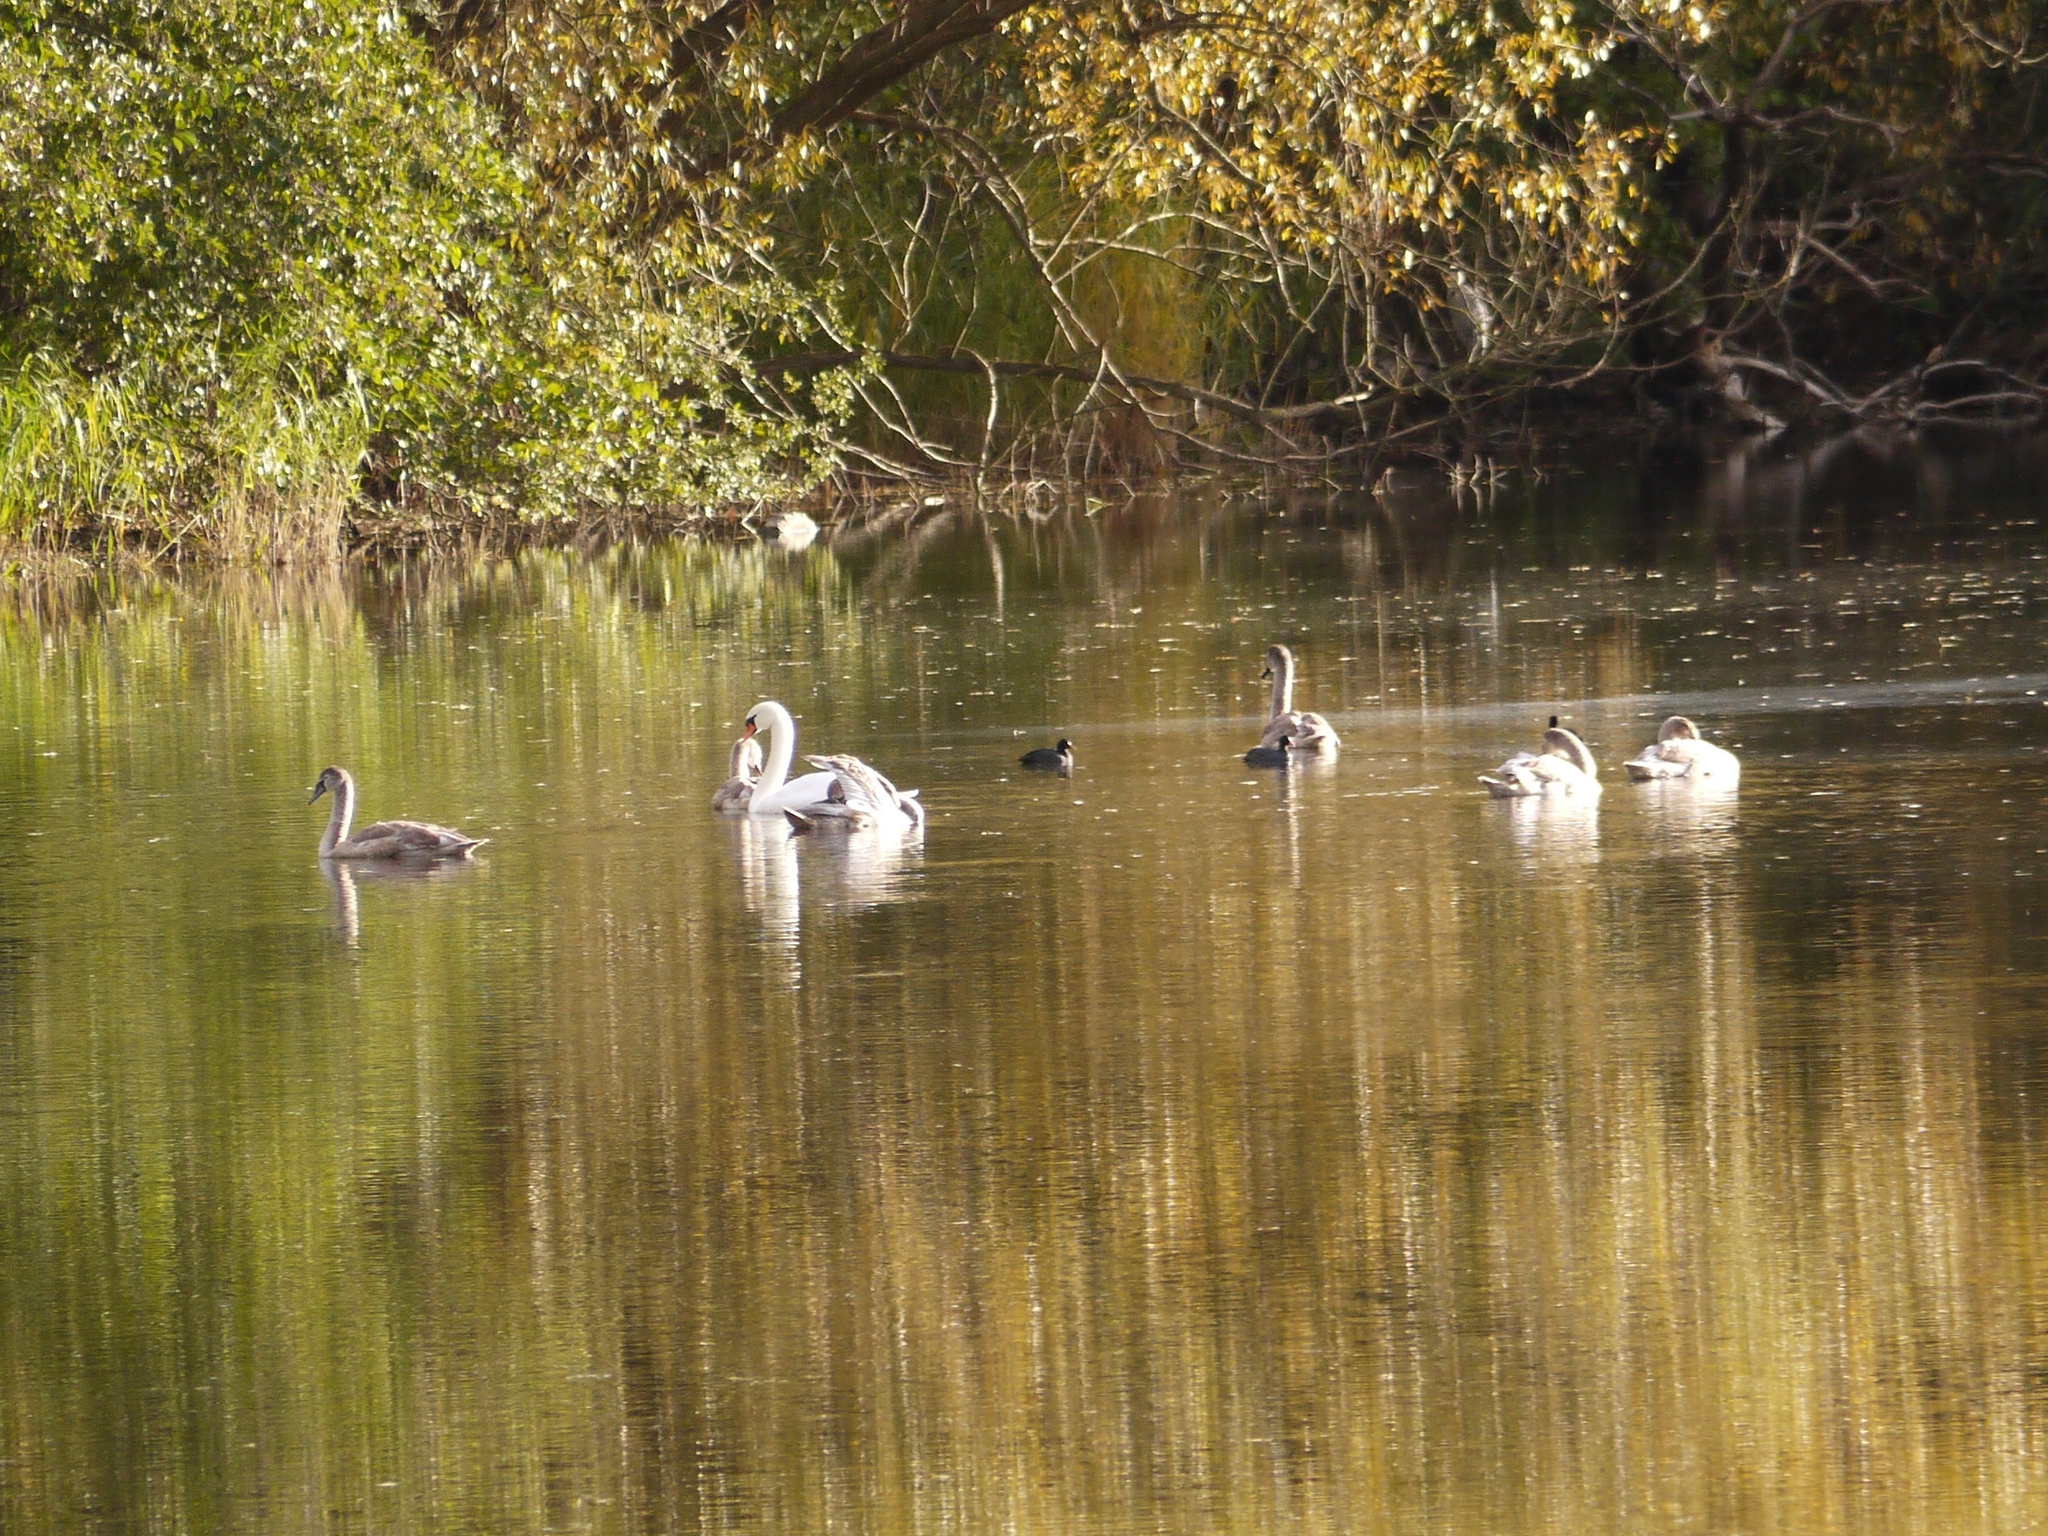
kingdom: Animalia
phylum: Chordata
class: Aves
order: Anseriformes
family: Anatidae
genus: Cygnus
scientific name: Cygnus olor
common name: Mute swan
